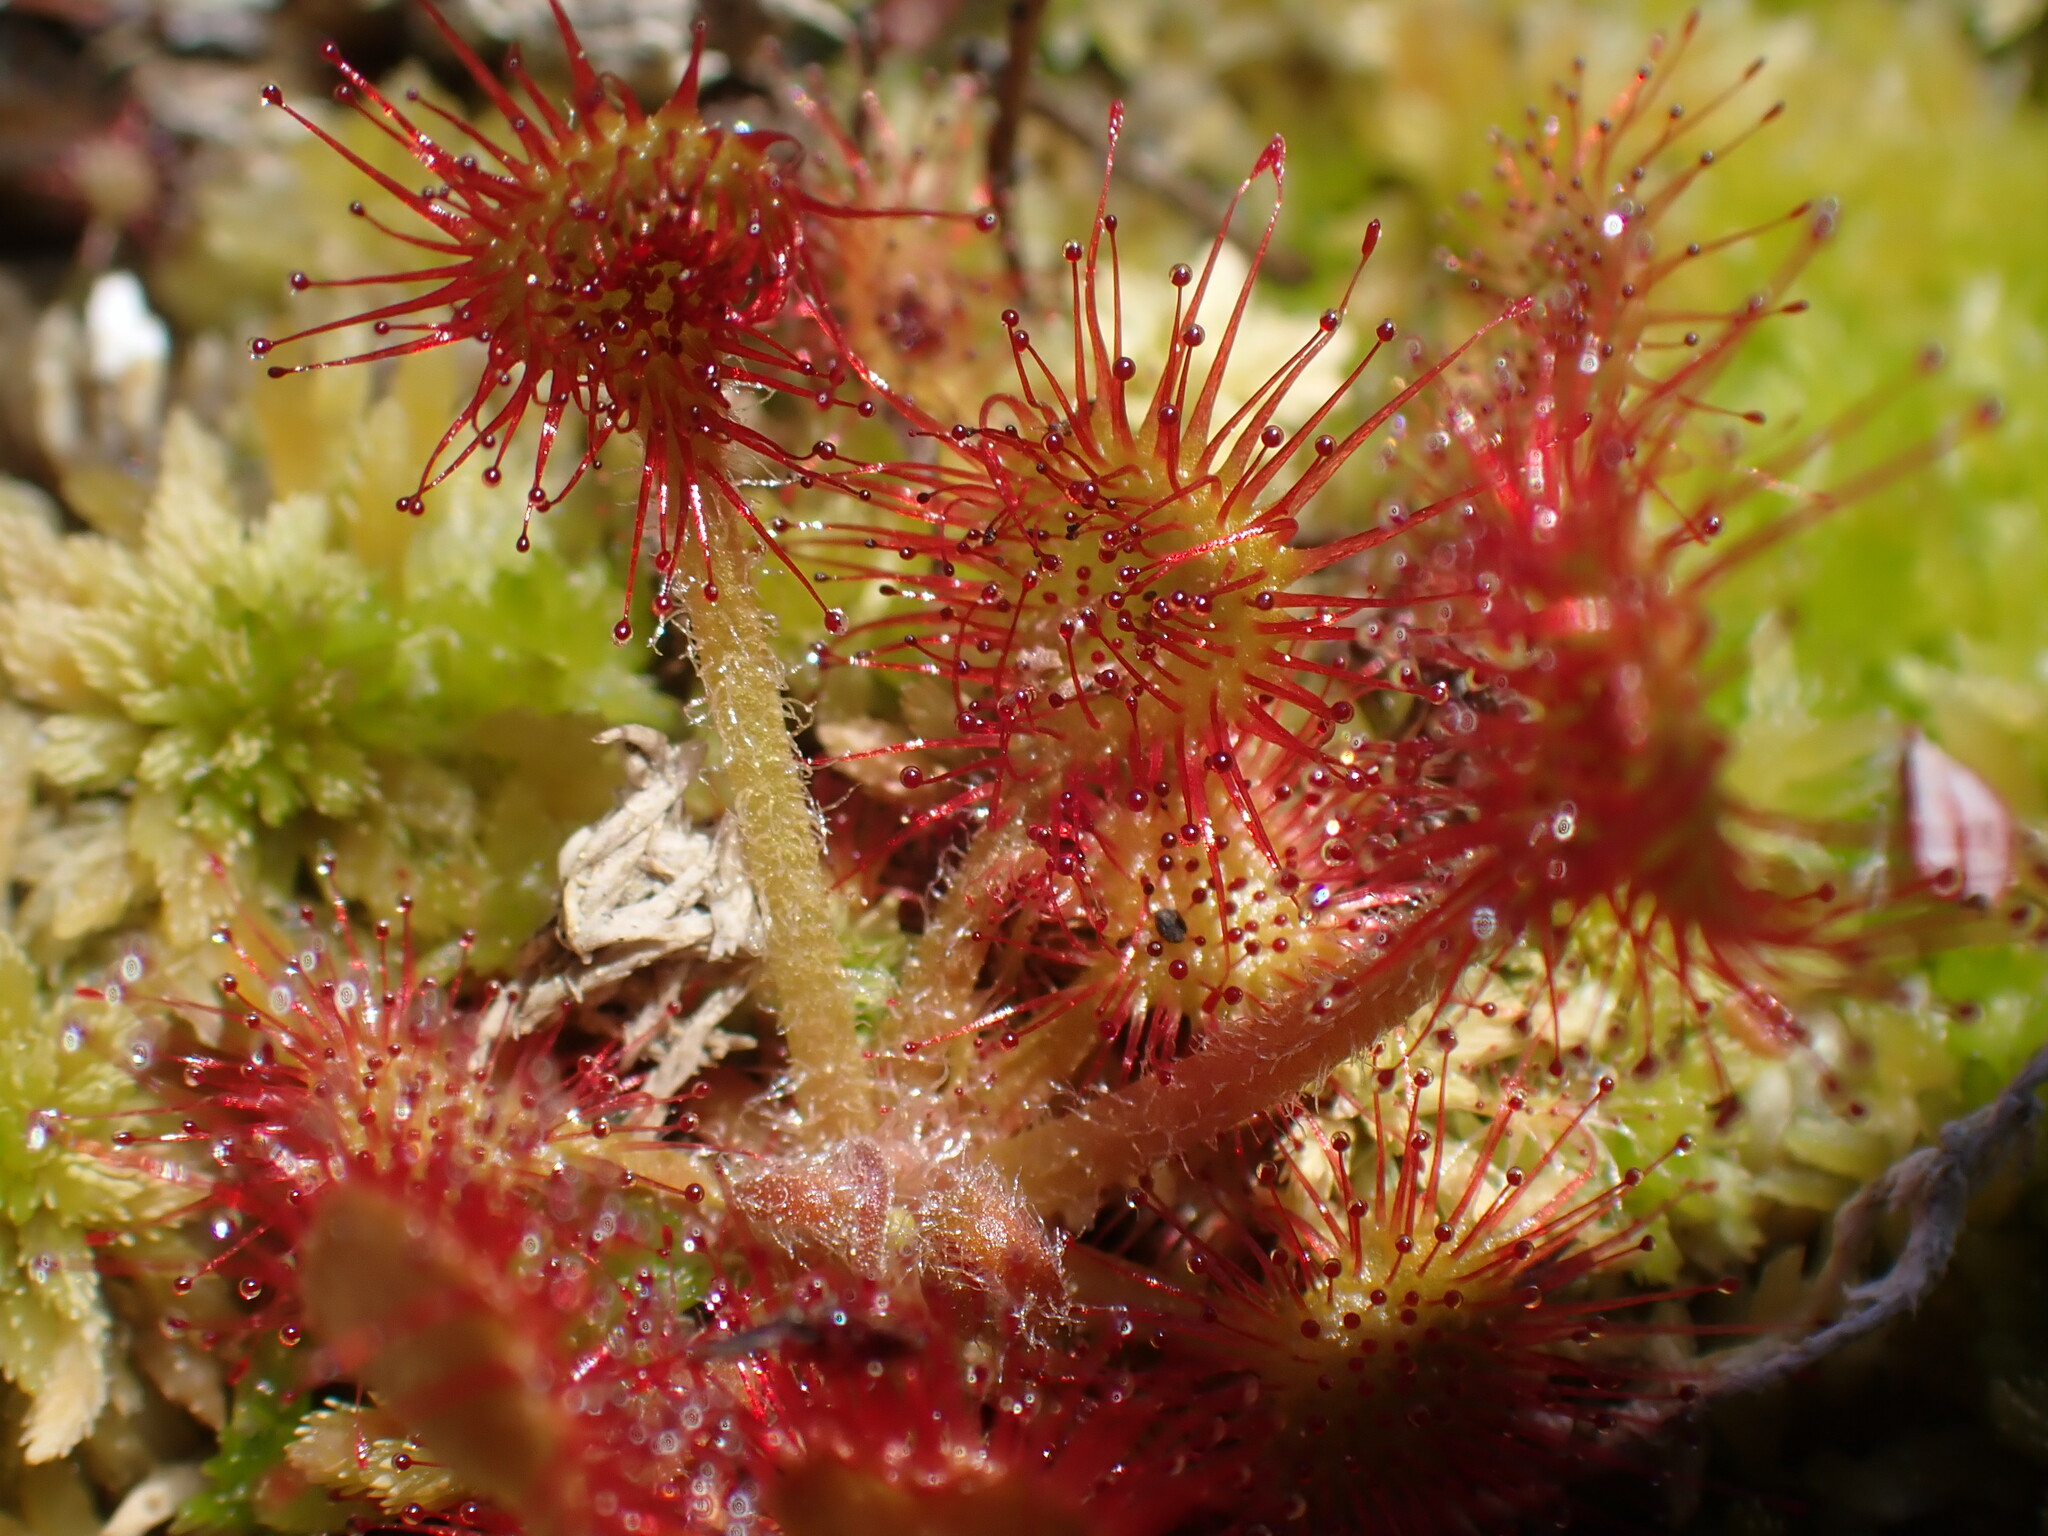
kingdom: Plantae
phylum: Tracheophyta
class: Magnoliopsida
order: Caryophyllales
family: Droseraceae
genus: Drosera
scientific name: Drosera rotundifolia
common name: Round-leaved sundew
